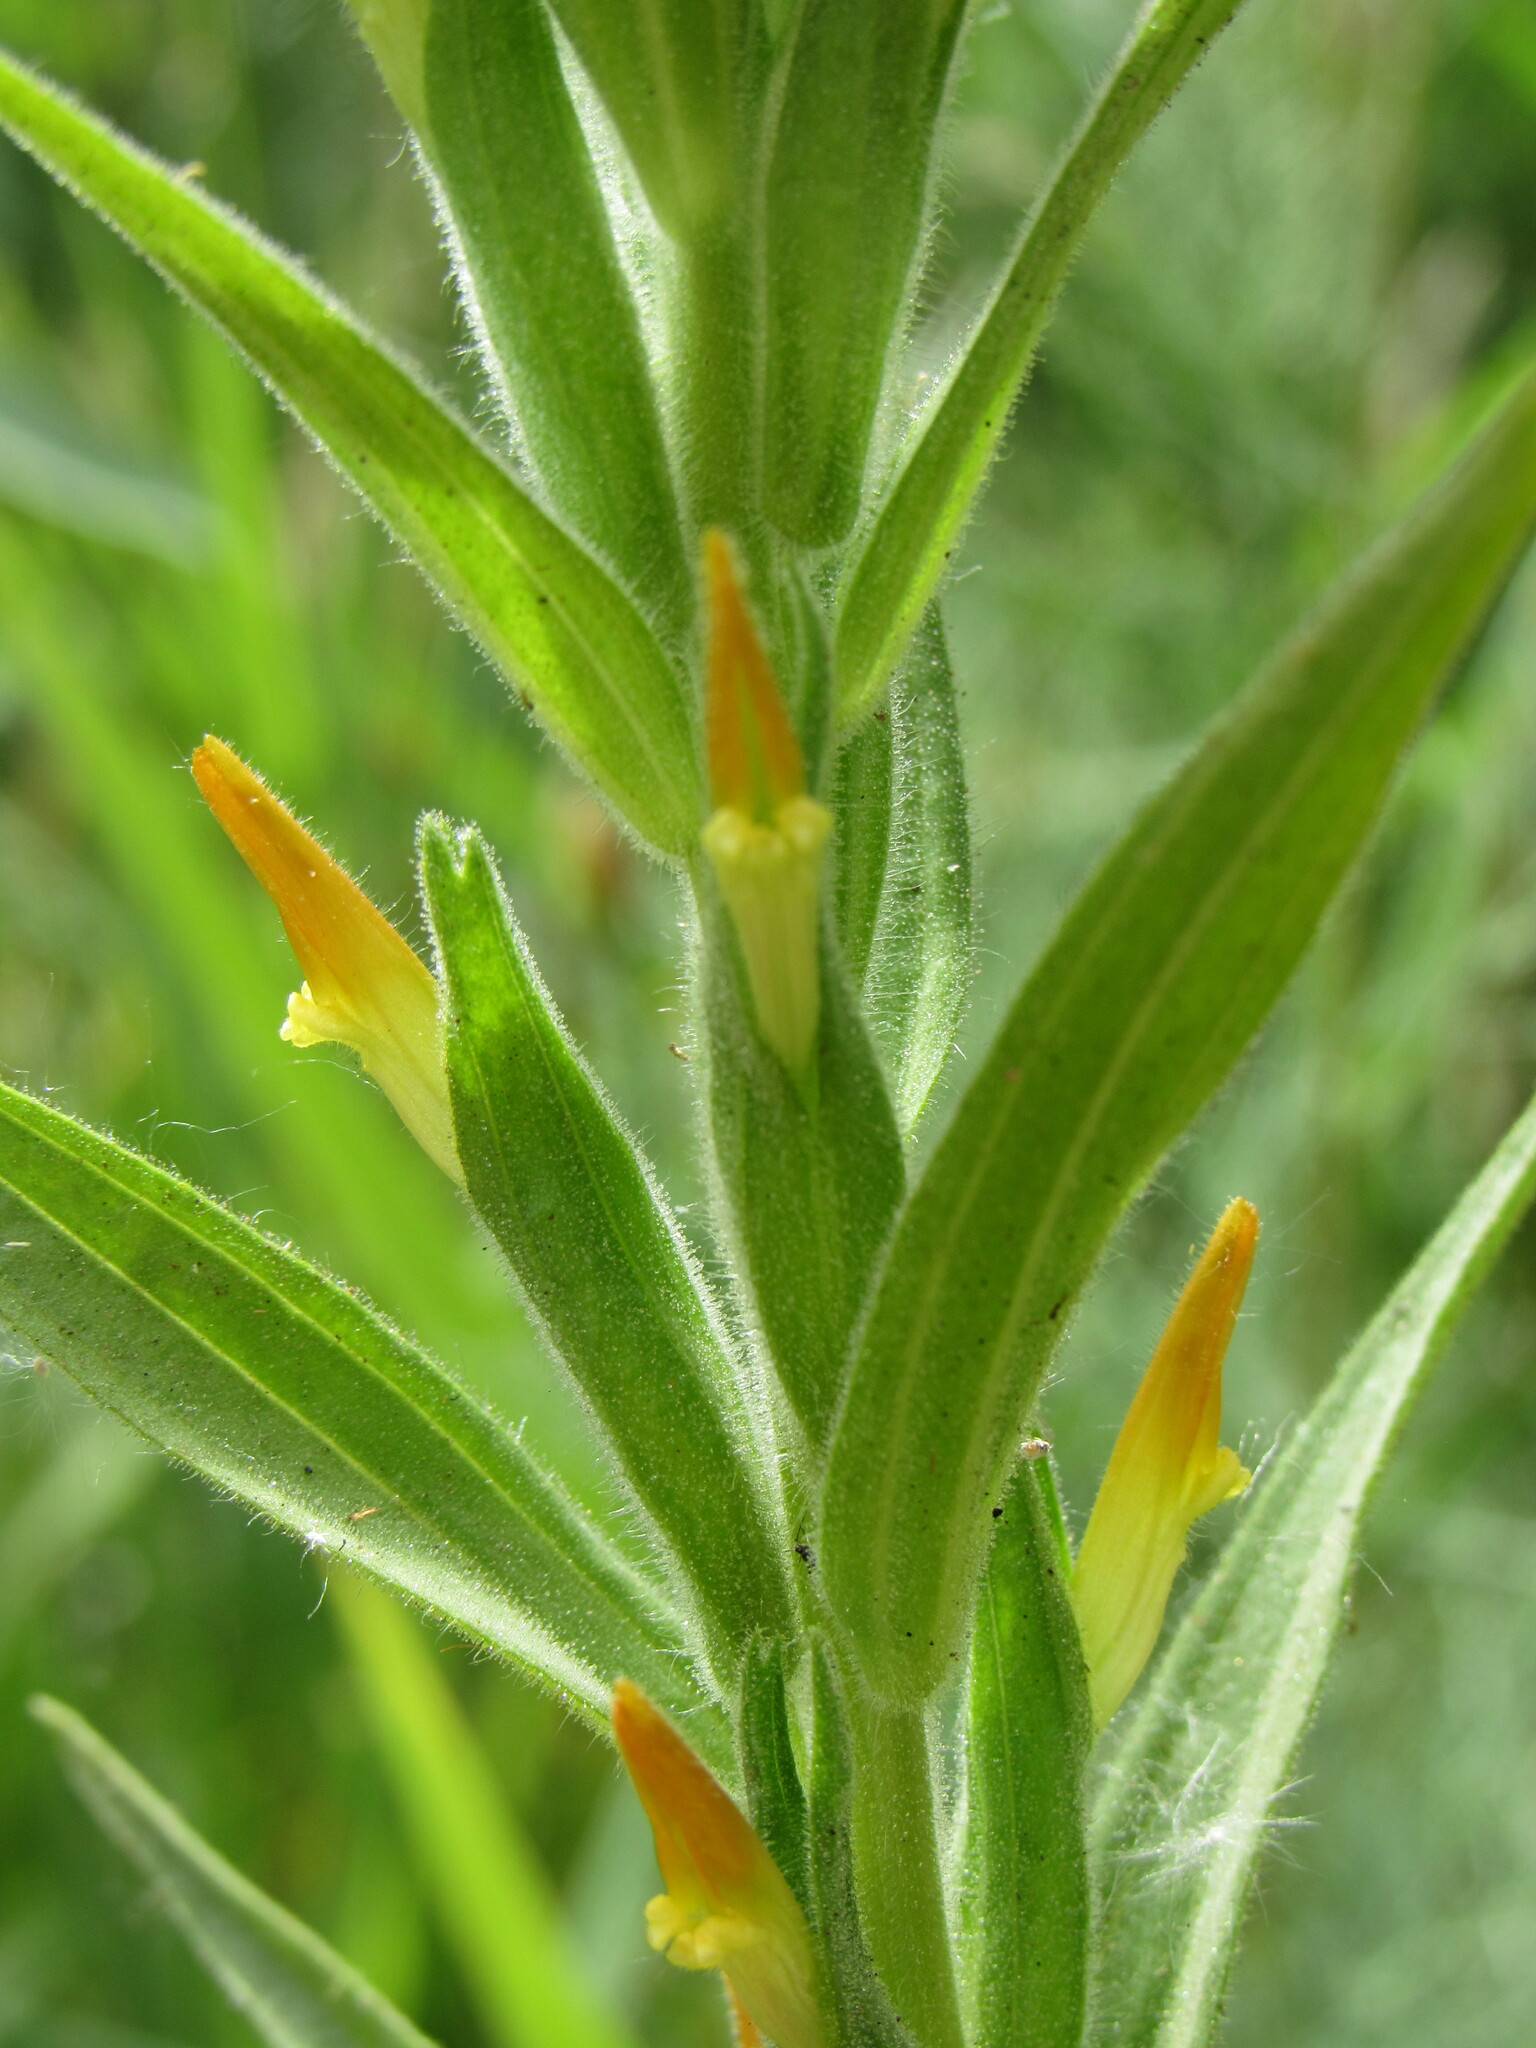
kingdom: Plantae
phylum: Tracheophyta
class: Magnoliopsida
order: Lamiales
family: Orobanchaceae
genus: Castilleja
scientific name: Castilleja minor
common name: Seep paintbrush
